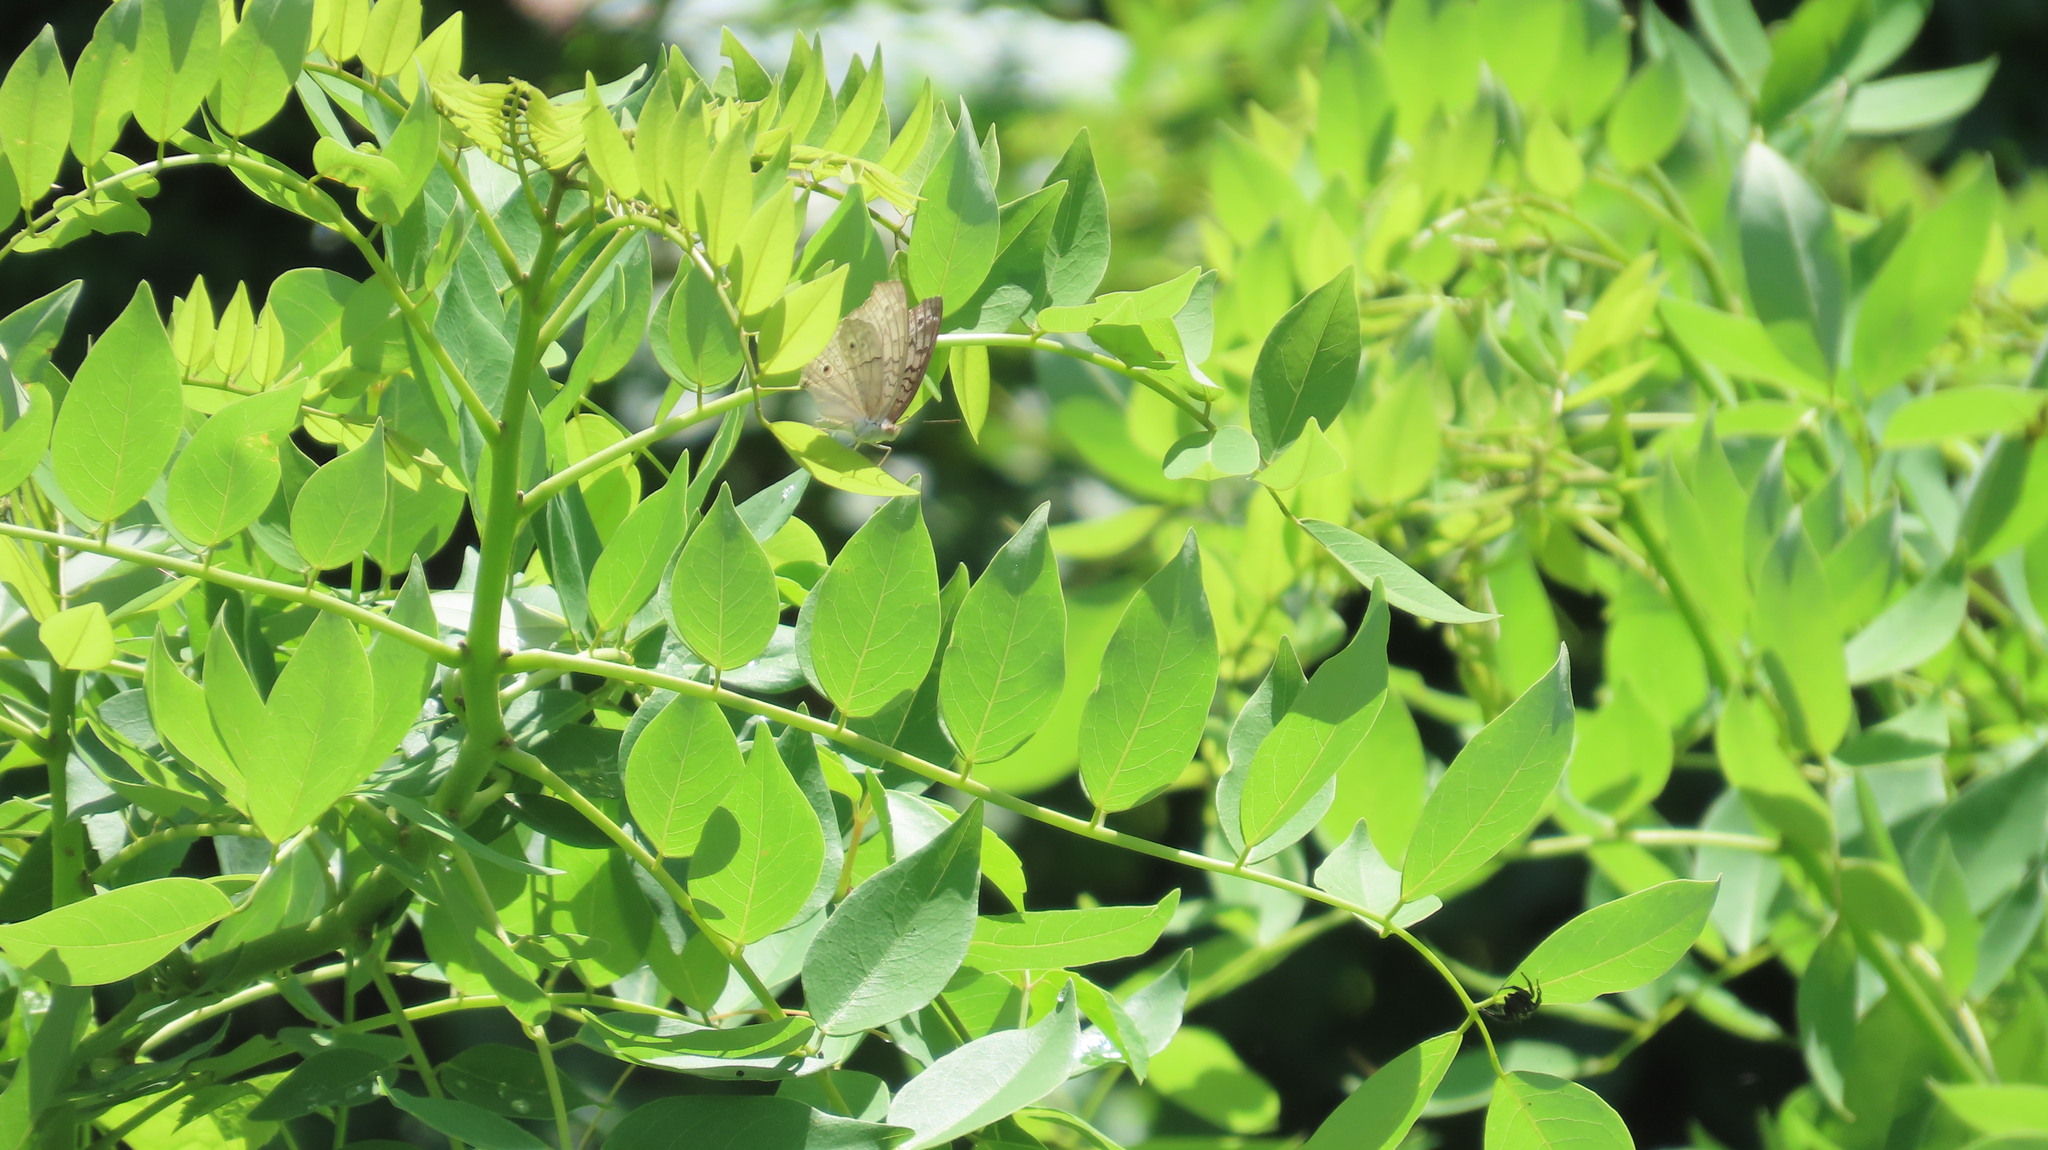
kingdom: Animalia
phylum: Arthropoda
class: Insecta
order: Lepidoptera
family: Nymphalidae
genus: Junonia
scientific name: Junonia atlites
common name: Grey pansy
